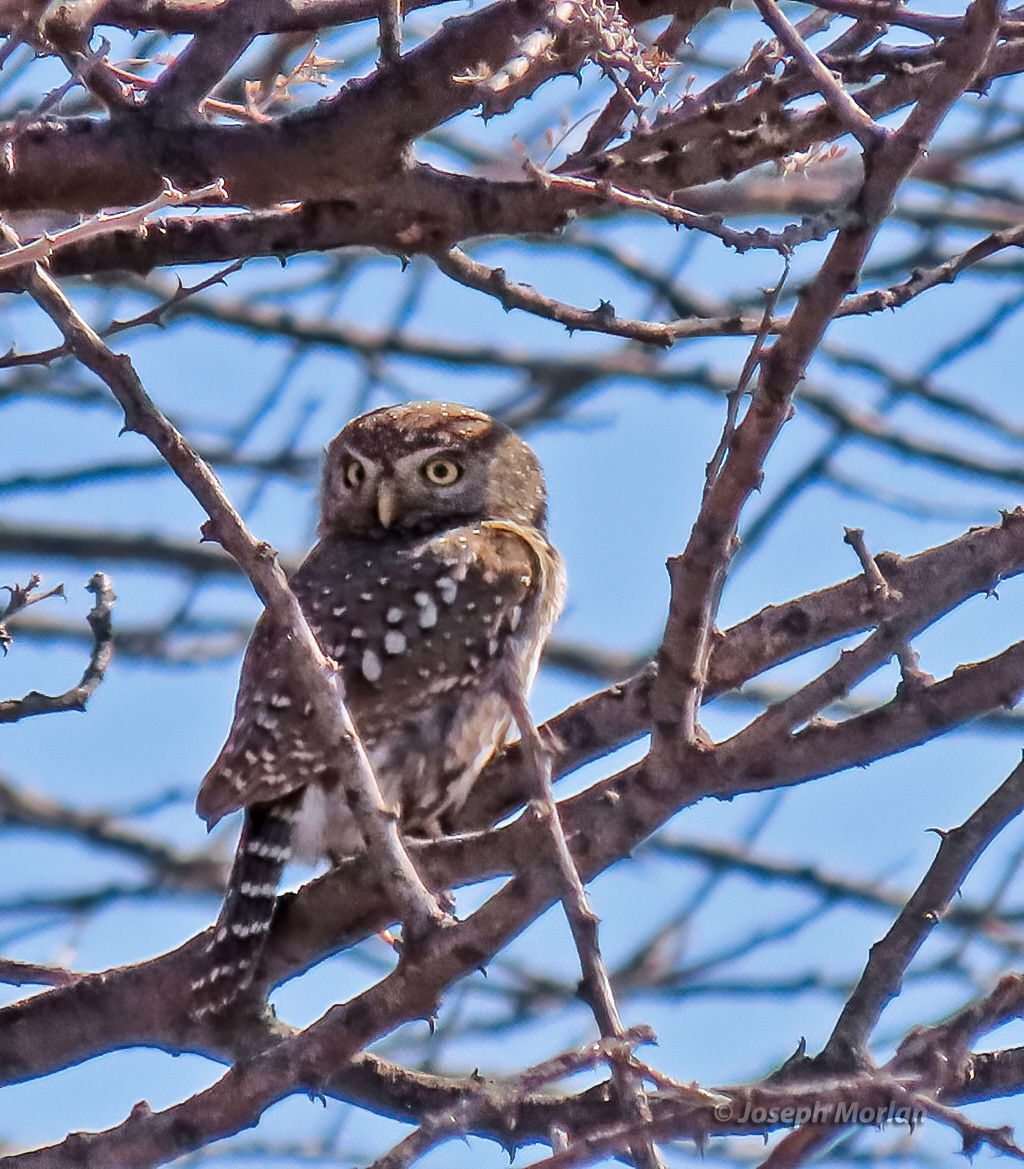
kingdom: Animalia
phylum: Chordata
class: Aves
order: Strigiformes
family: Strigidae
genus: Glaucidium
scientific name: Glaucidium perlatum
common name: Pearl-spotted owlet
